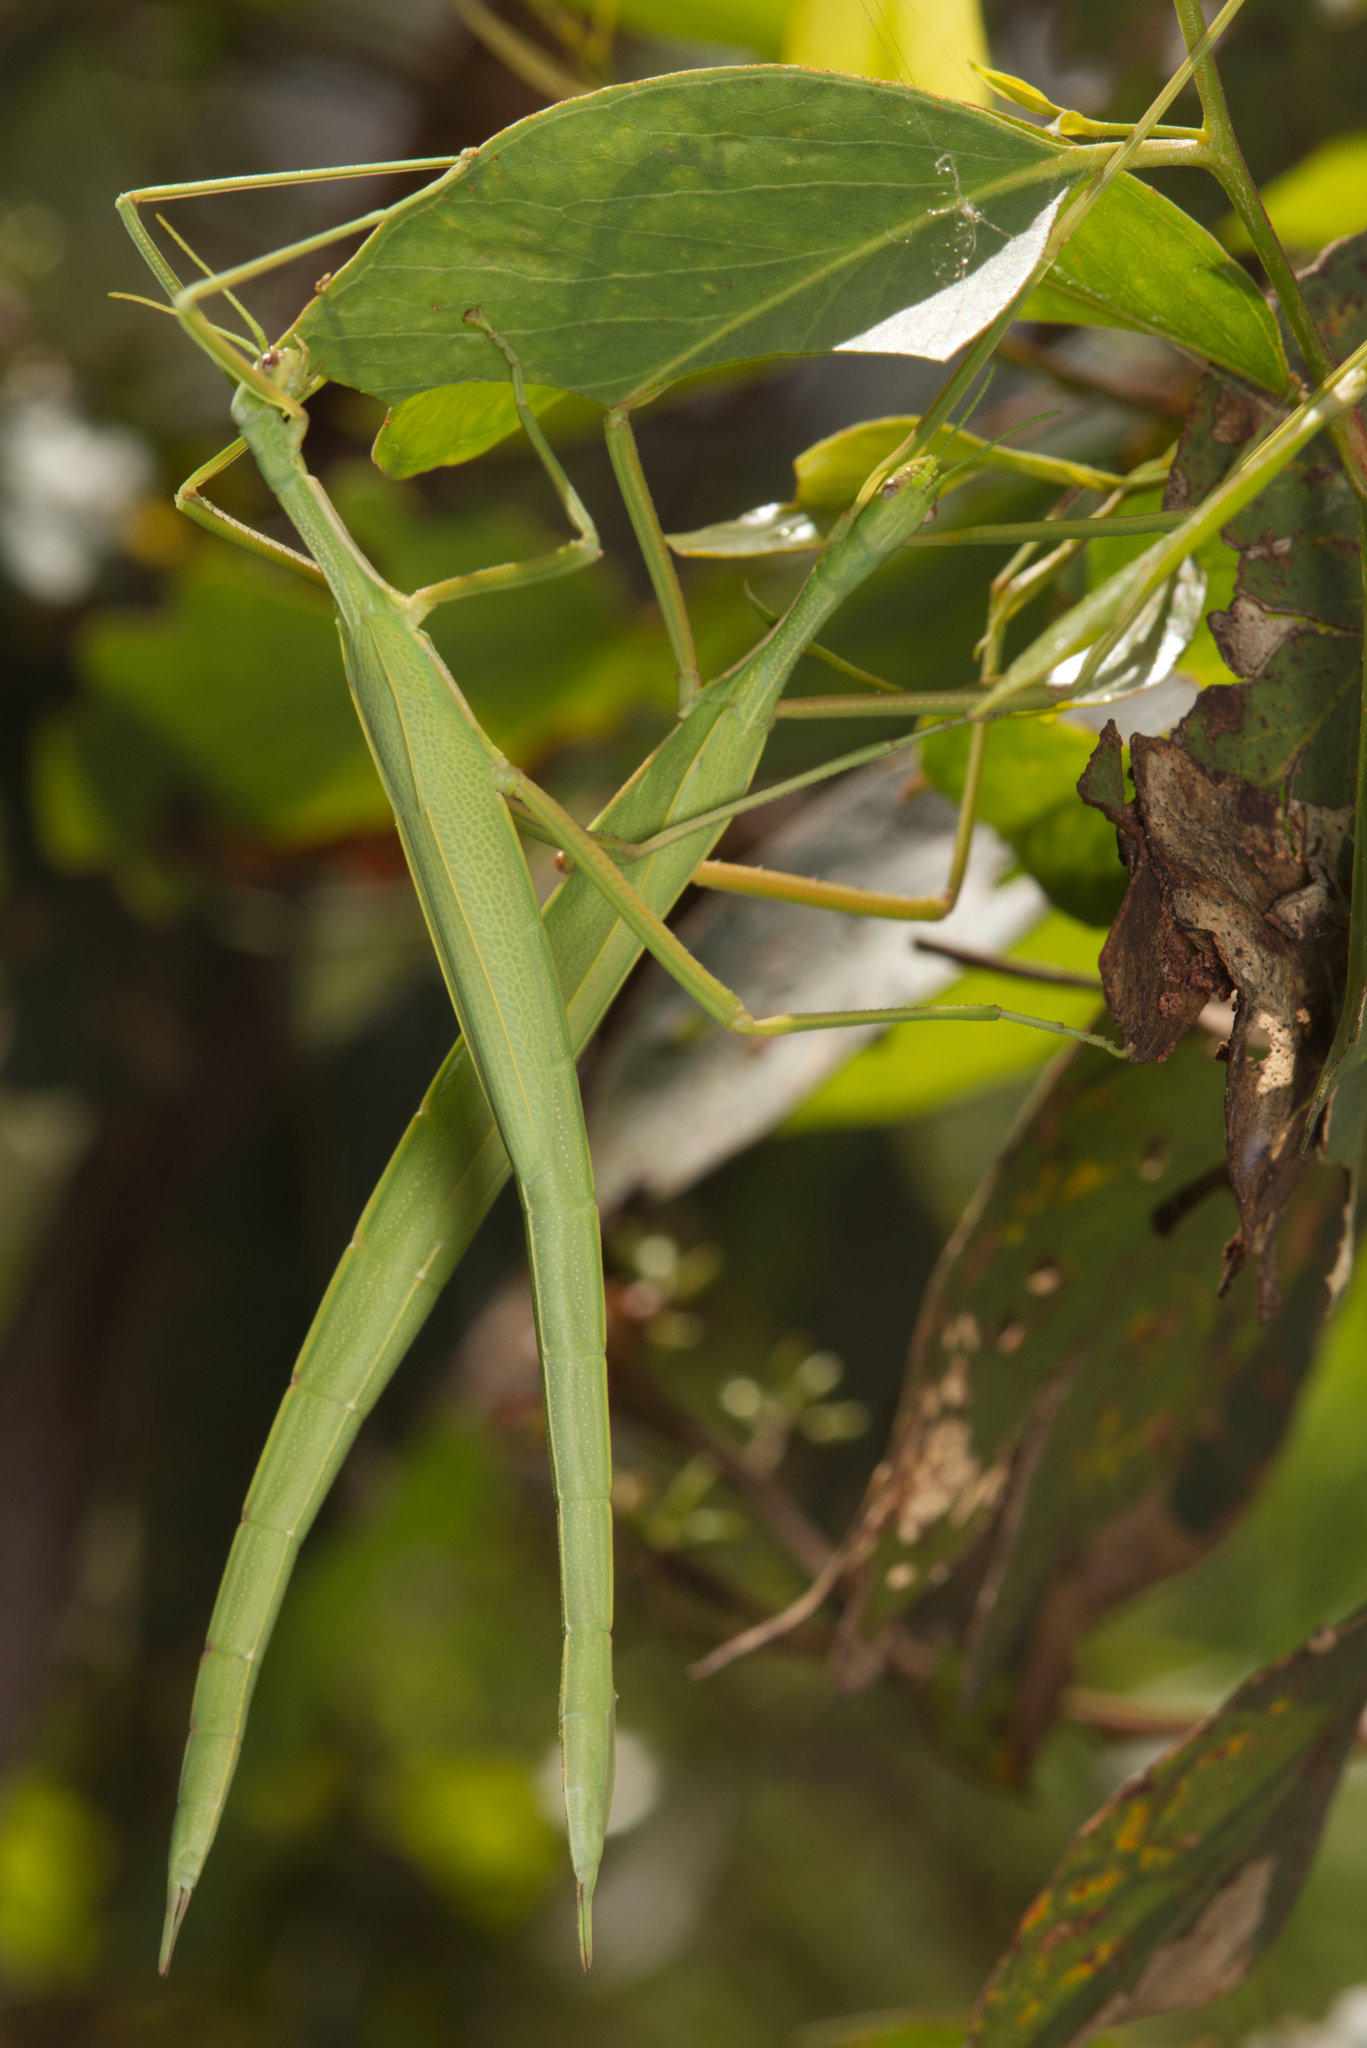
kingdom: Animalia
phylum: Arthropoda
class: Insecta
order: Phasmida
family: Phasmatidae
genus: Didymuria
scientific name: Didymuria violescens
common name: Spur-legged stick-insect
